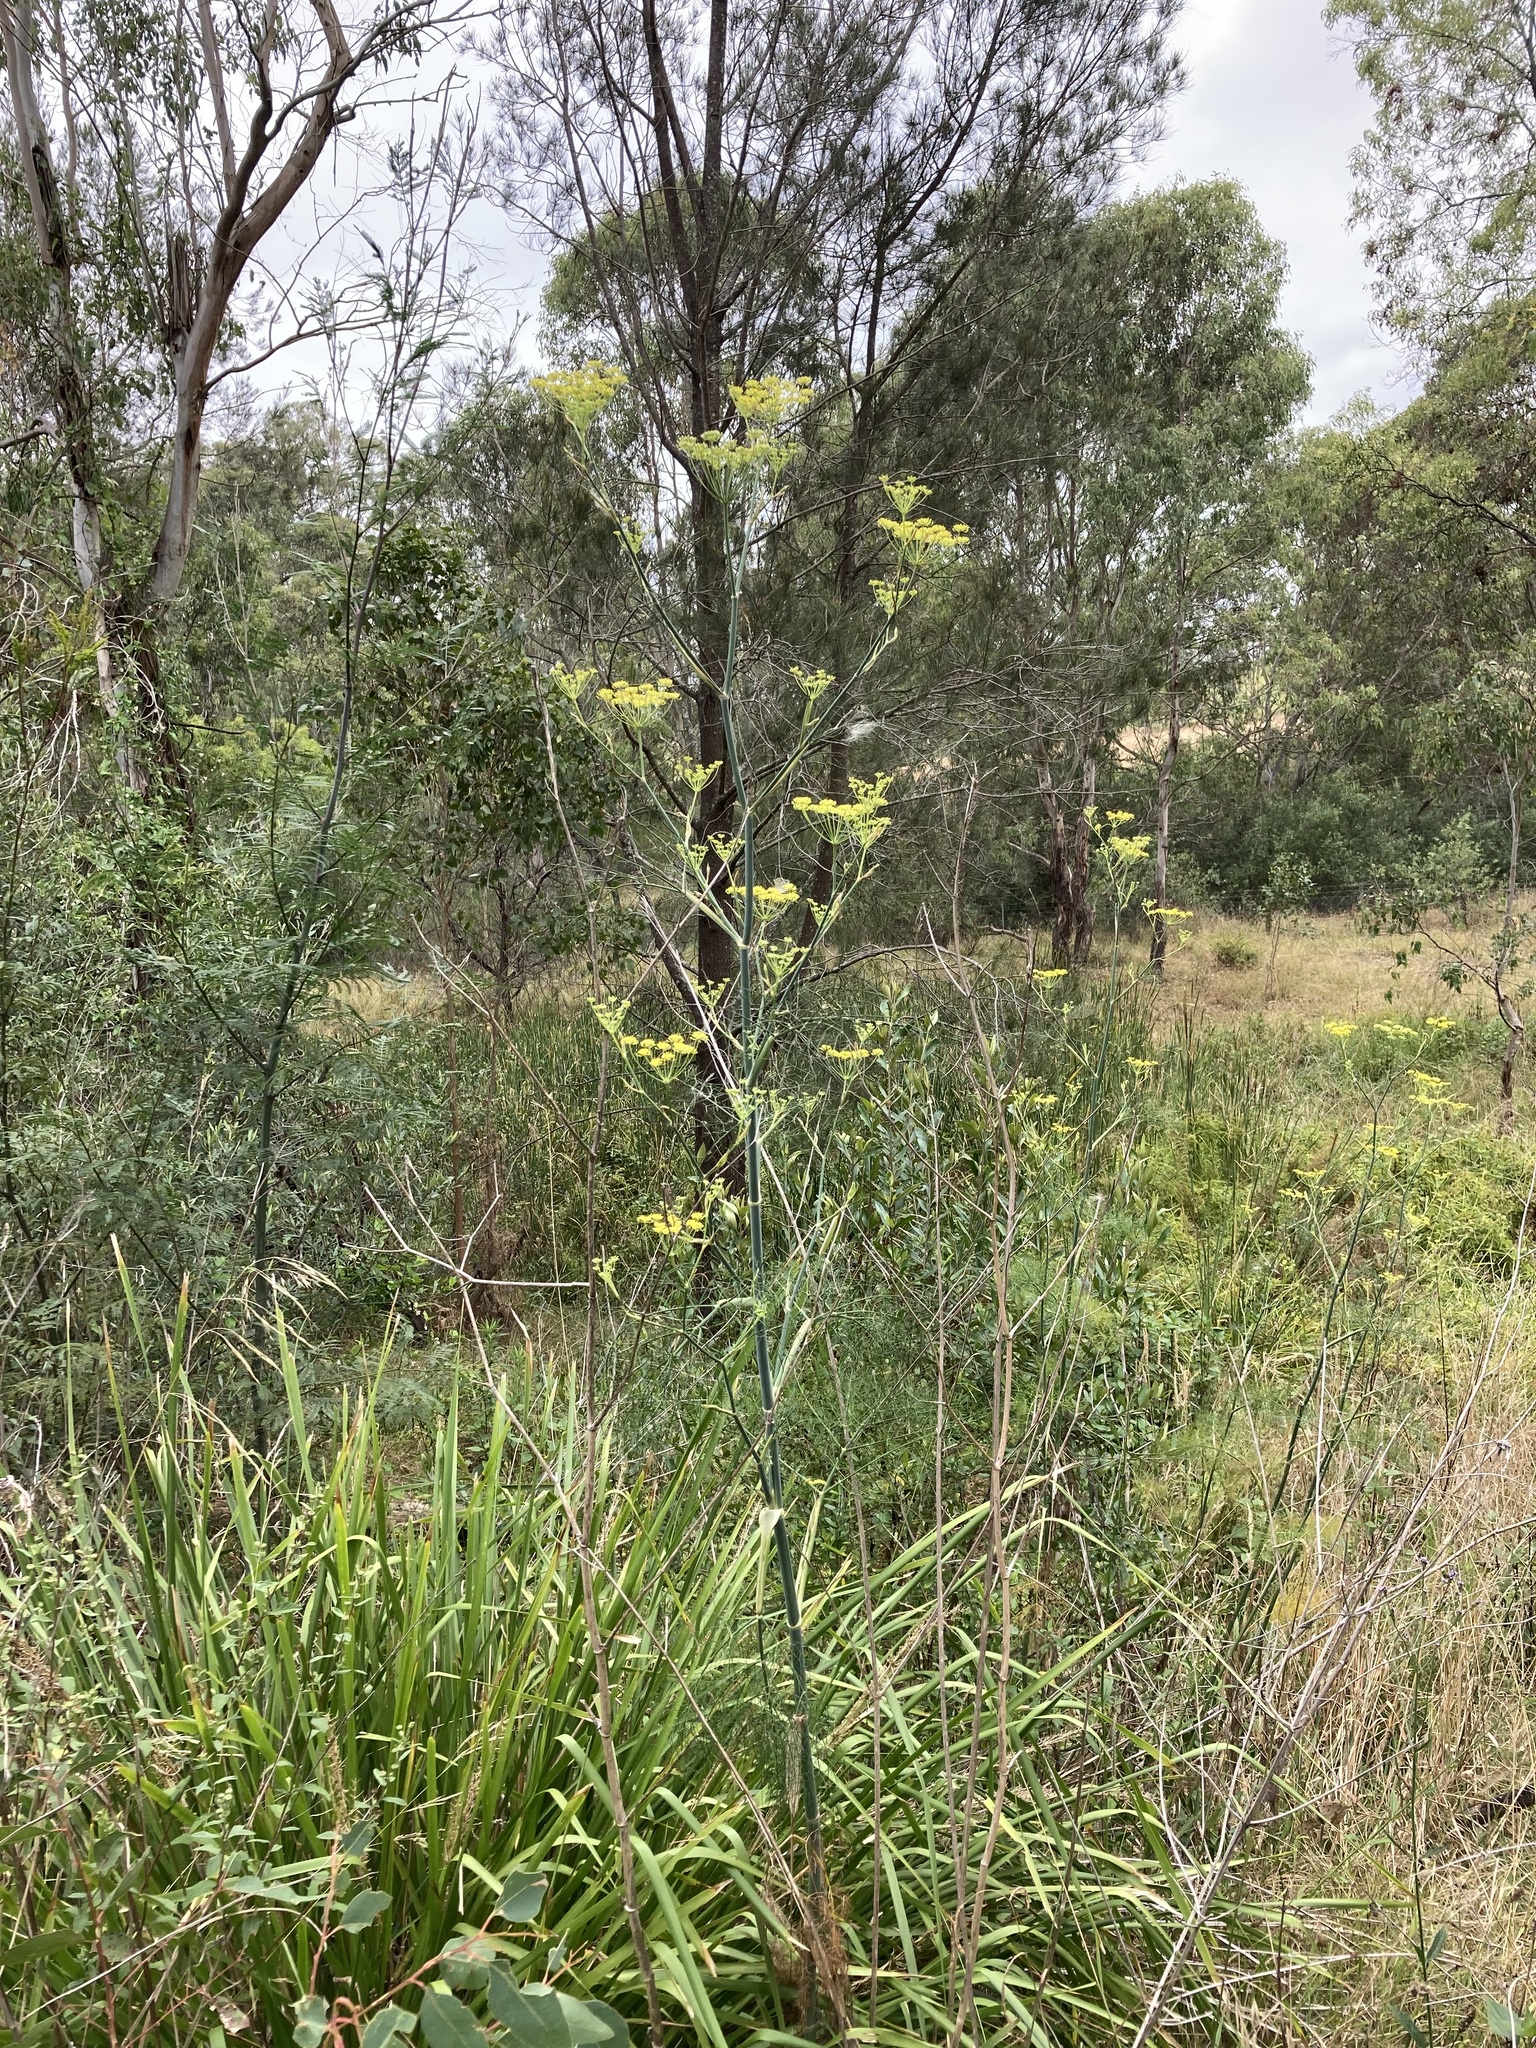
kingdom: Plantae
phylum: Tracheophyta
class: Magnoliopsida
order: Apiales
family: Apiaceae
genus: Foeniculum
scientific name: Foeniculum vulgare
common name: Fennel
